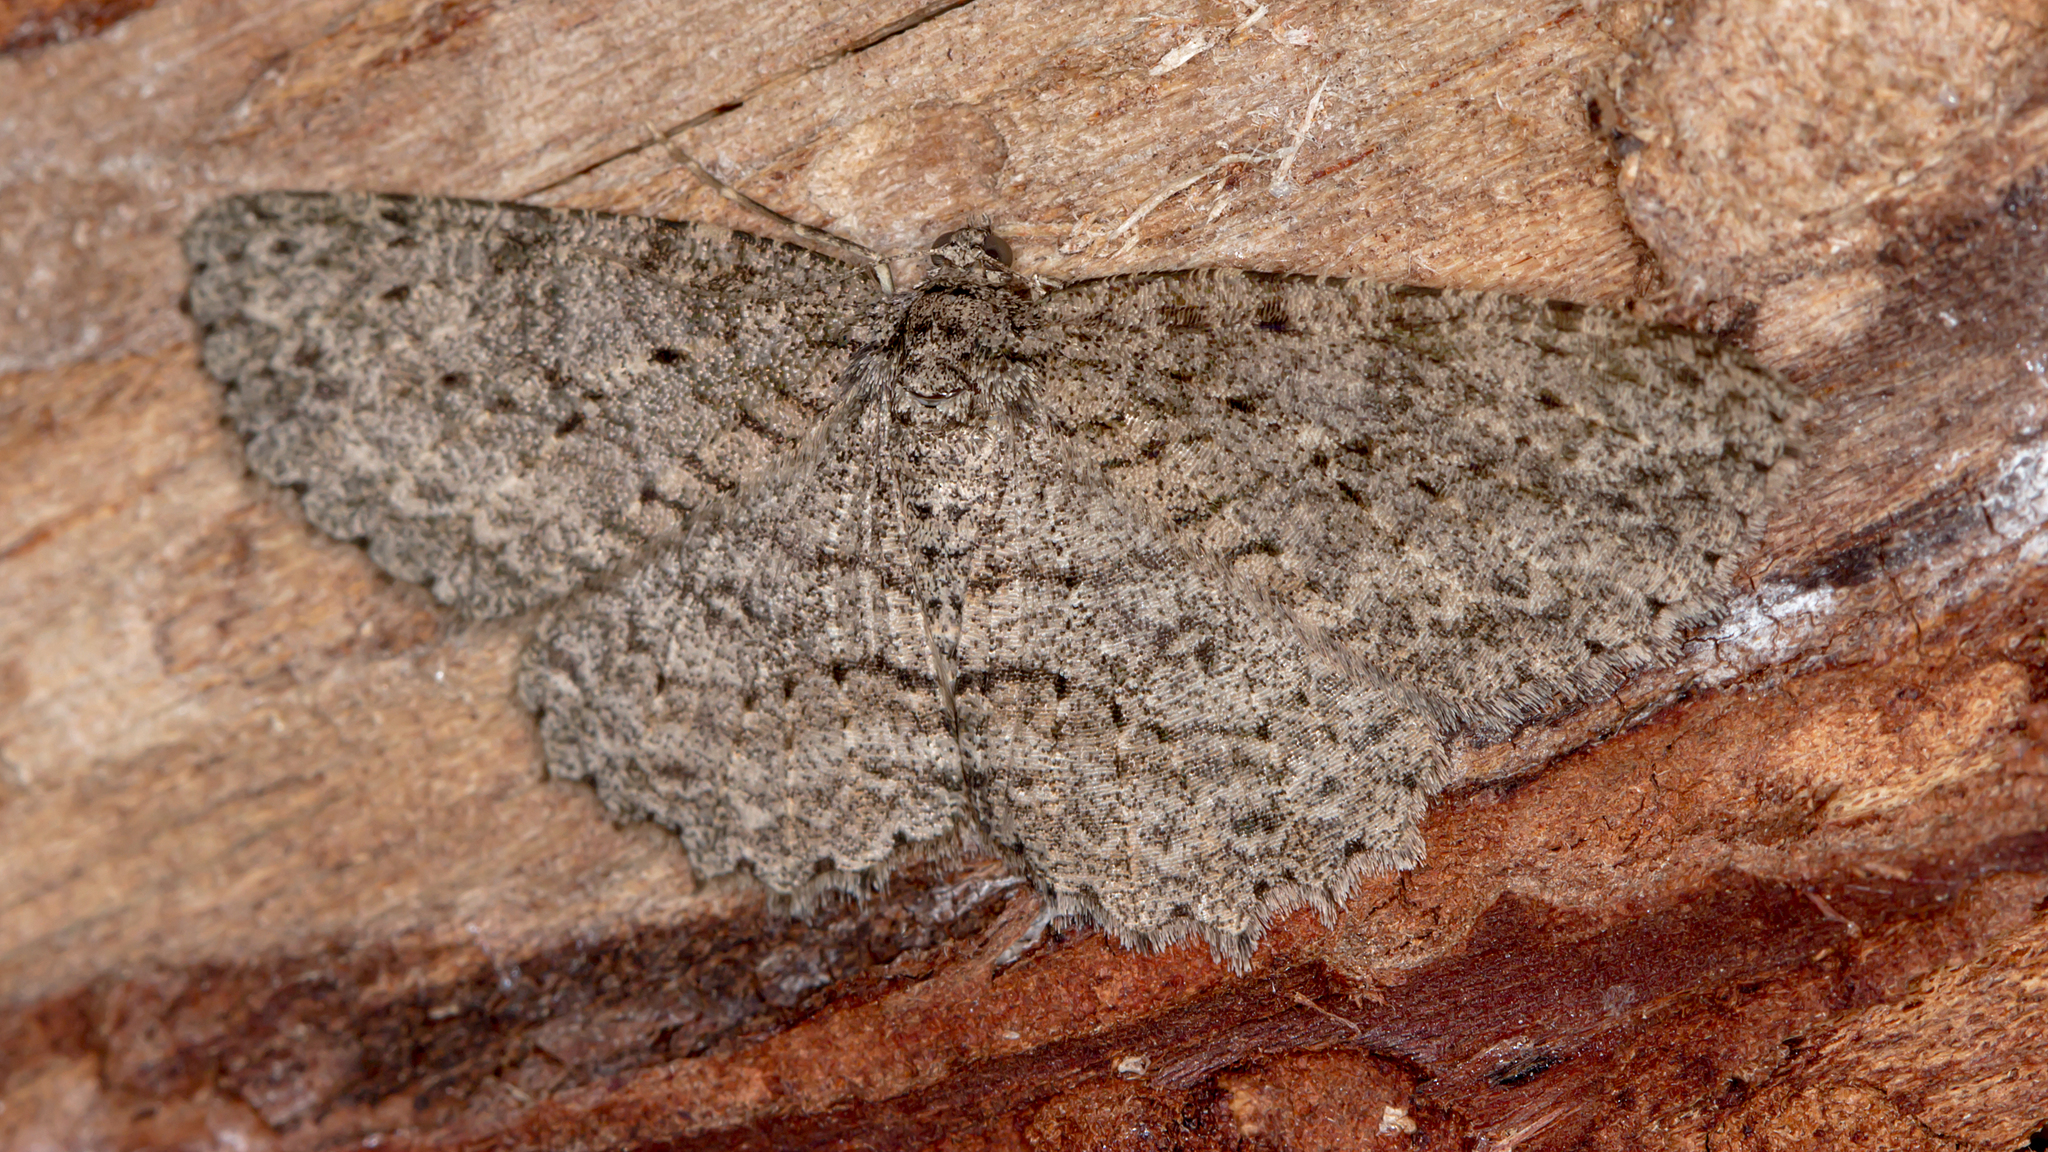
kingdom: Animalia
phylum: Arthropoda
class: Insecta
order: Lepidoptera
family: Geometridae
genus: Ectropis
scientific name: Ectropis fractaria
